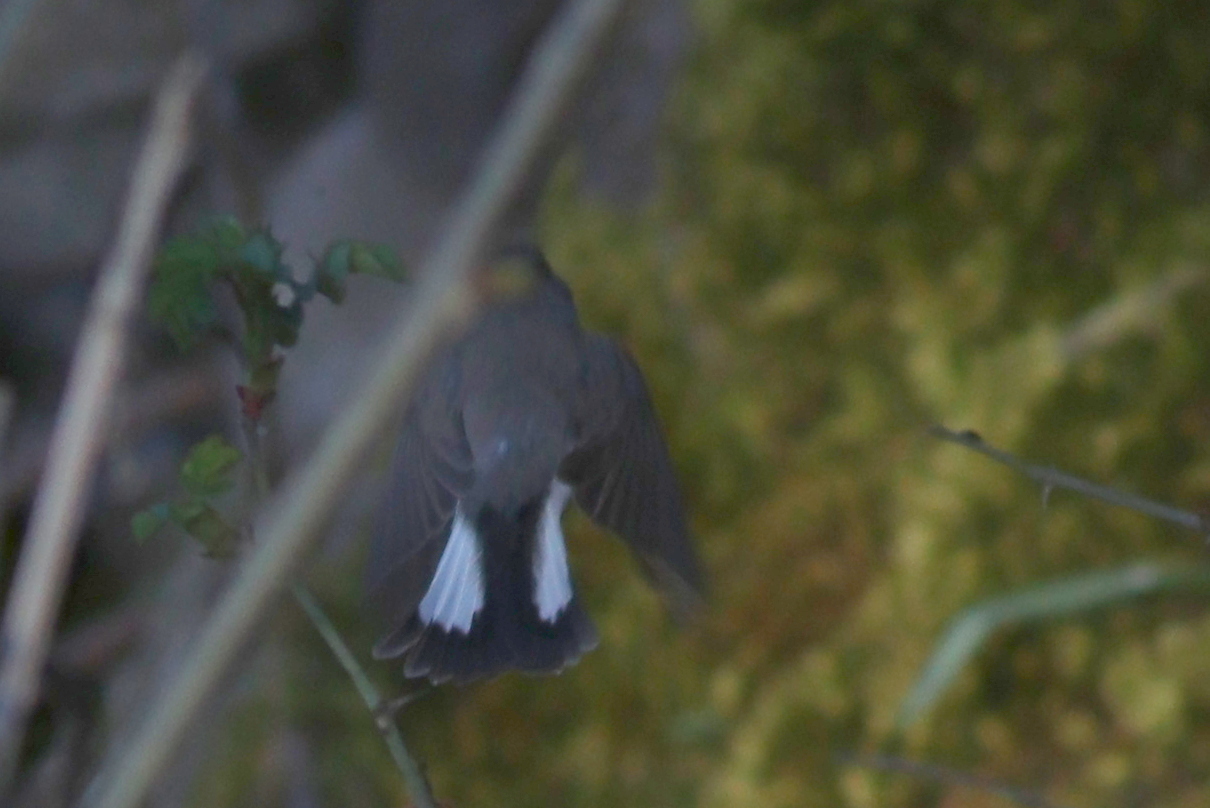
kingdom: Animalia
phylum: Chordata
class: Aves
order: Passeriformes
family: Muscicapidae
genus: Ficedula
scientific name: Ficedula parva
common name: Red-breasted flycatcher
